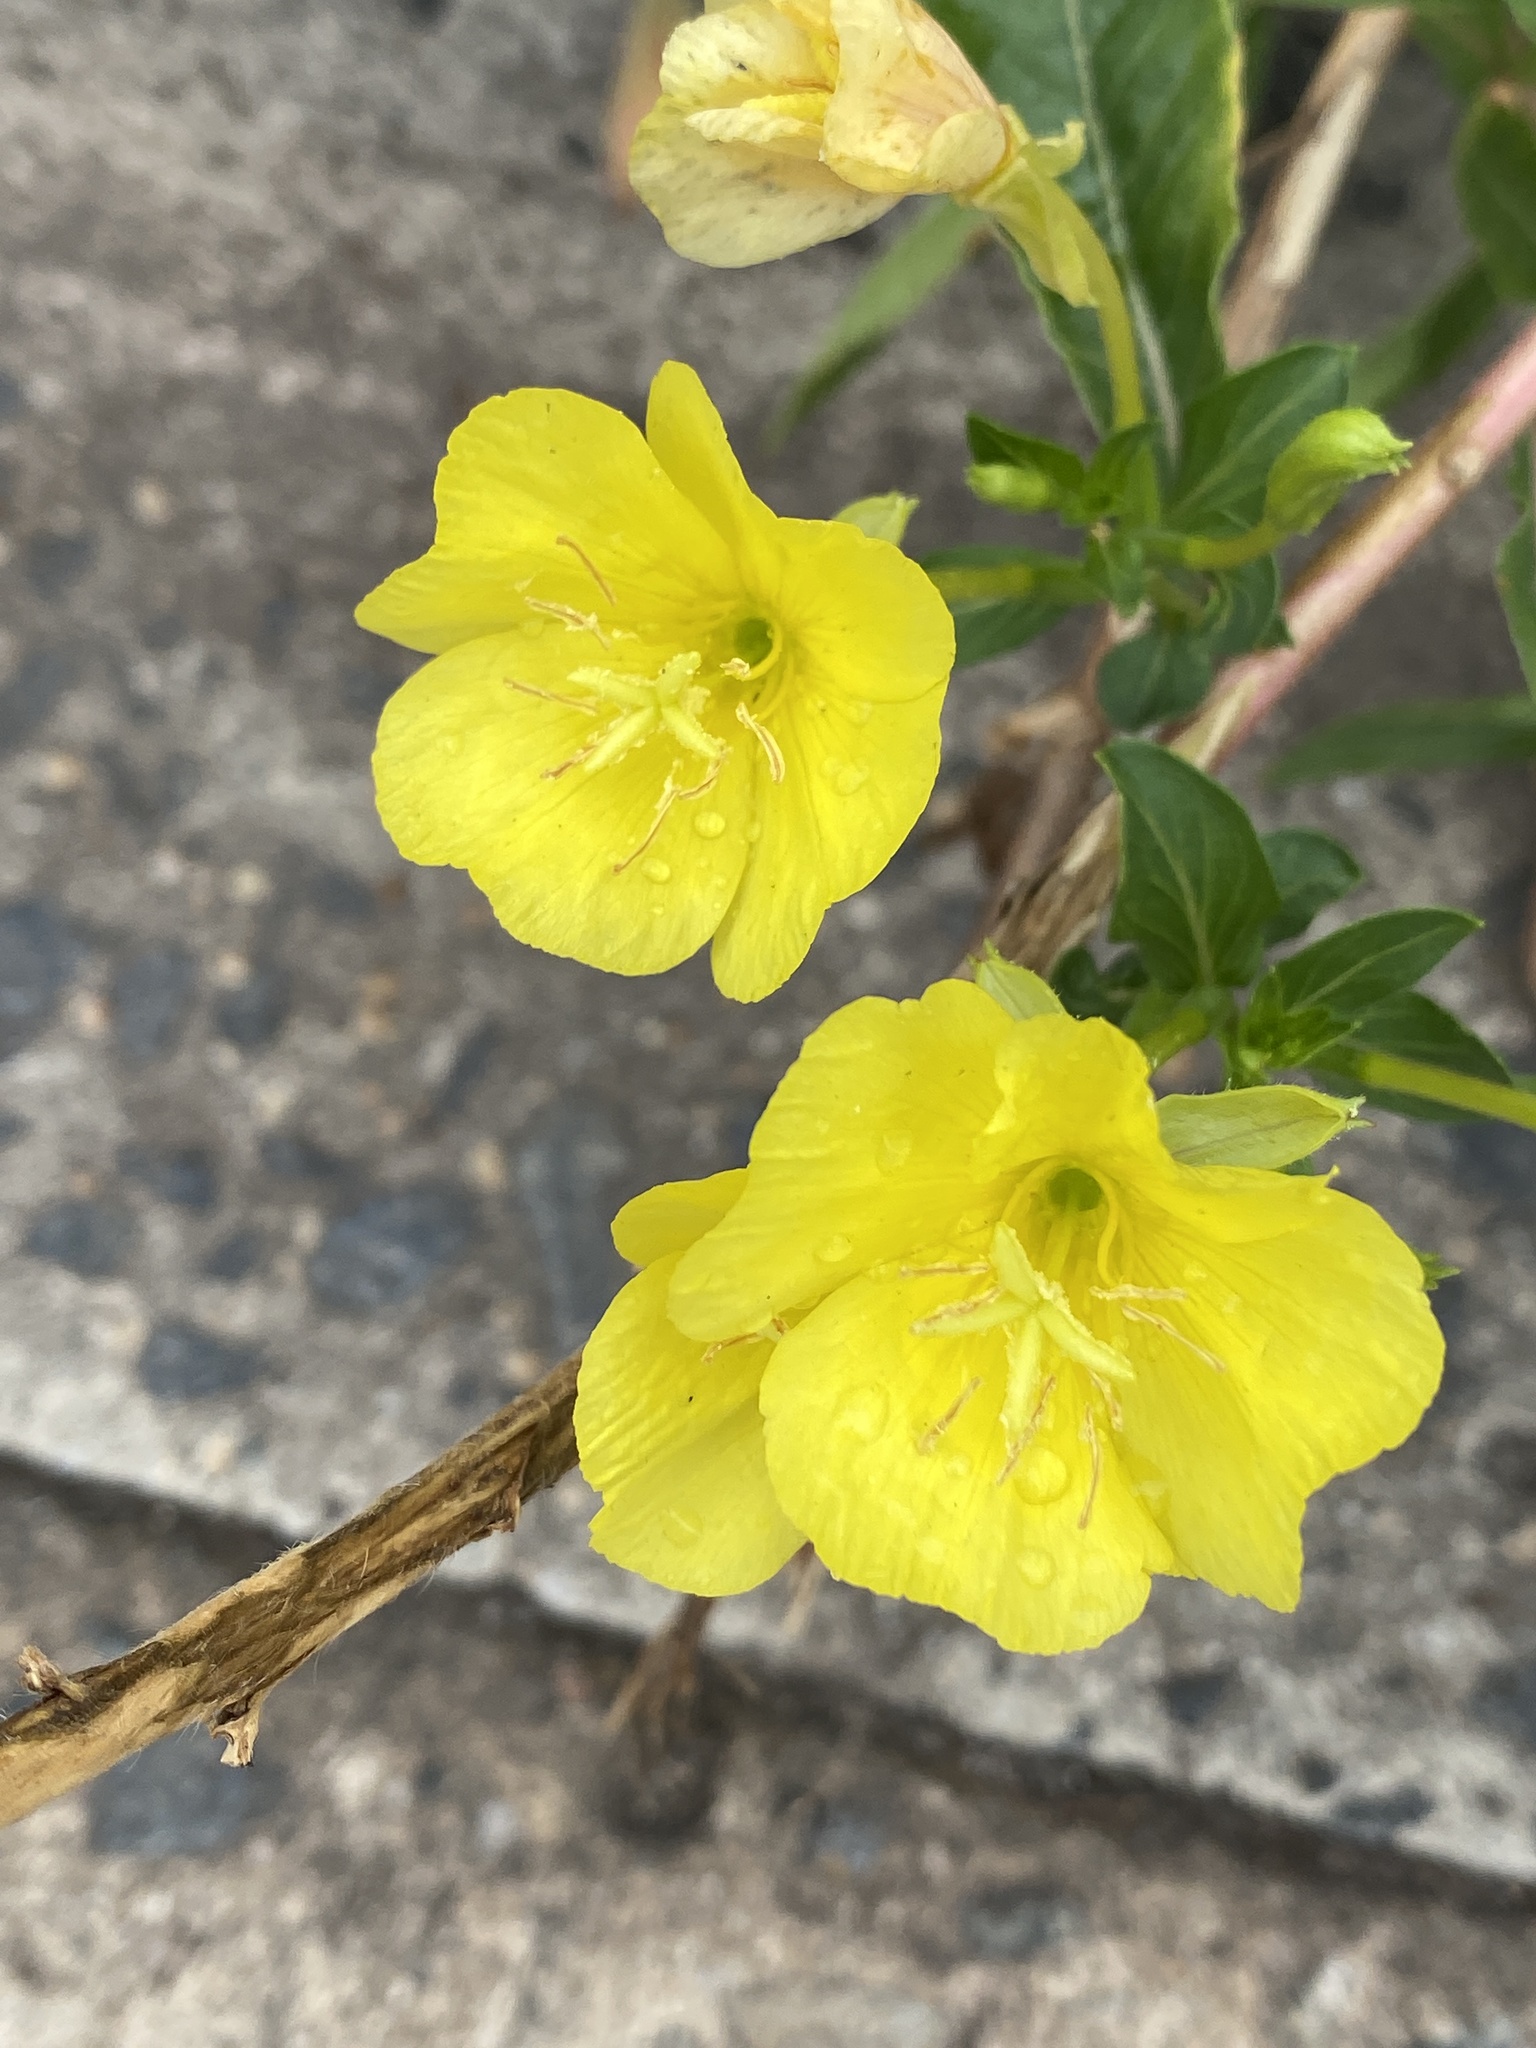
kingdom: Plantae
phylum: Tracheophyta
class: Magnoliopsida
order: Myrtales
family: Onagraceae
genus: Oenothera
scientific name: Oenothera biennis
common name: Common evening-primrose
